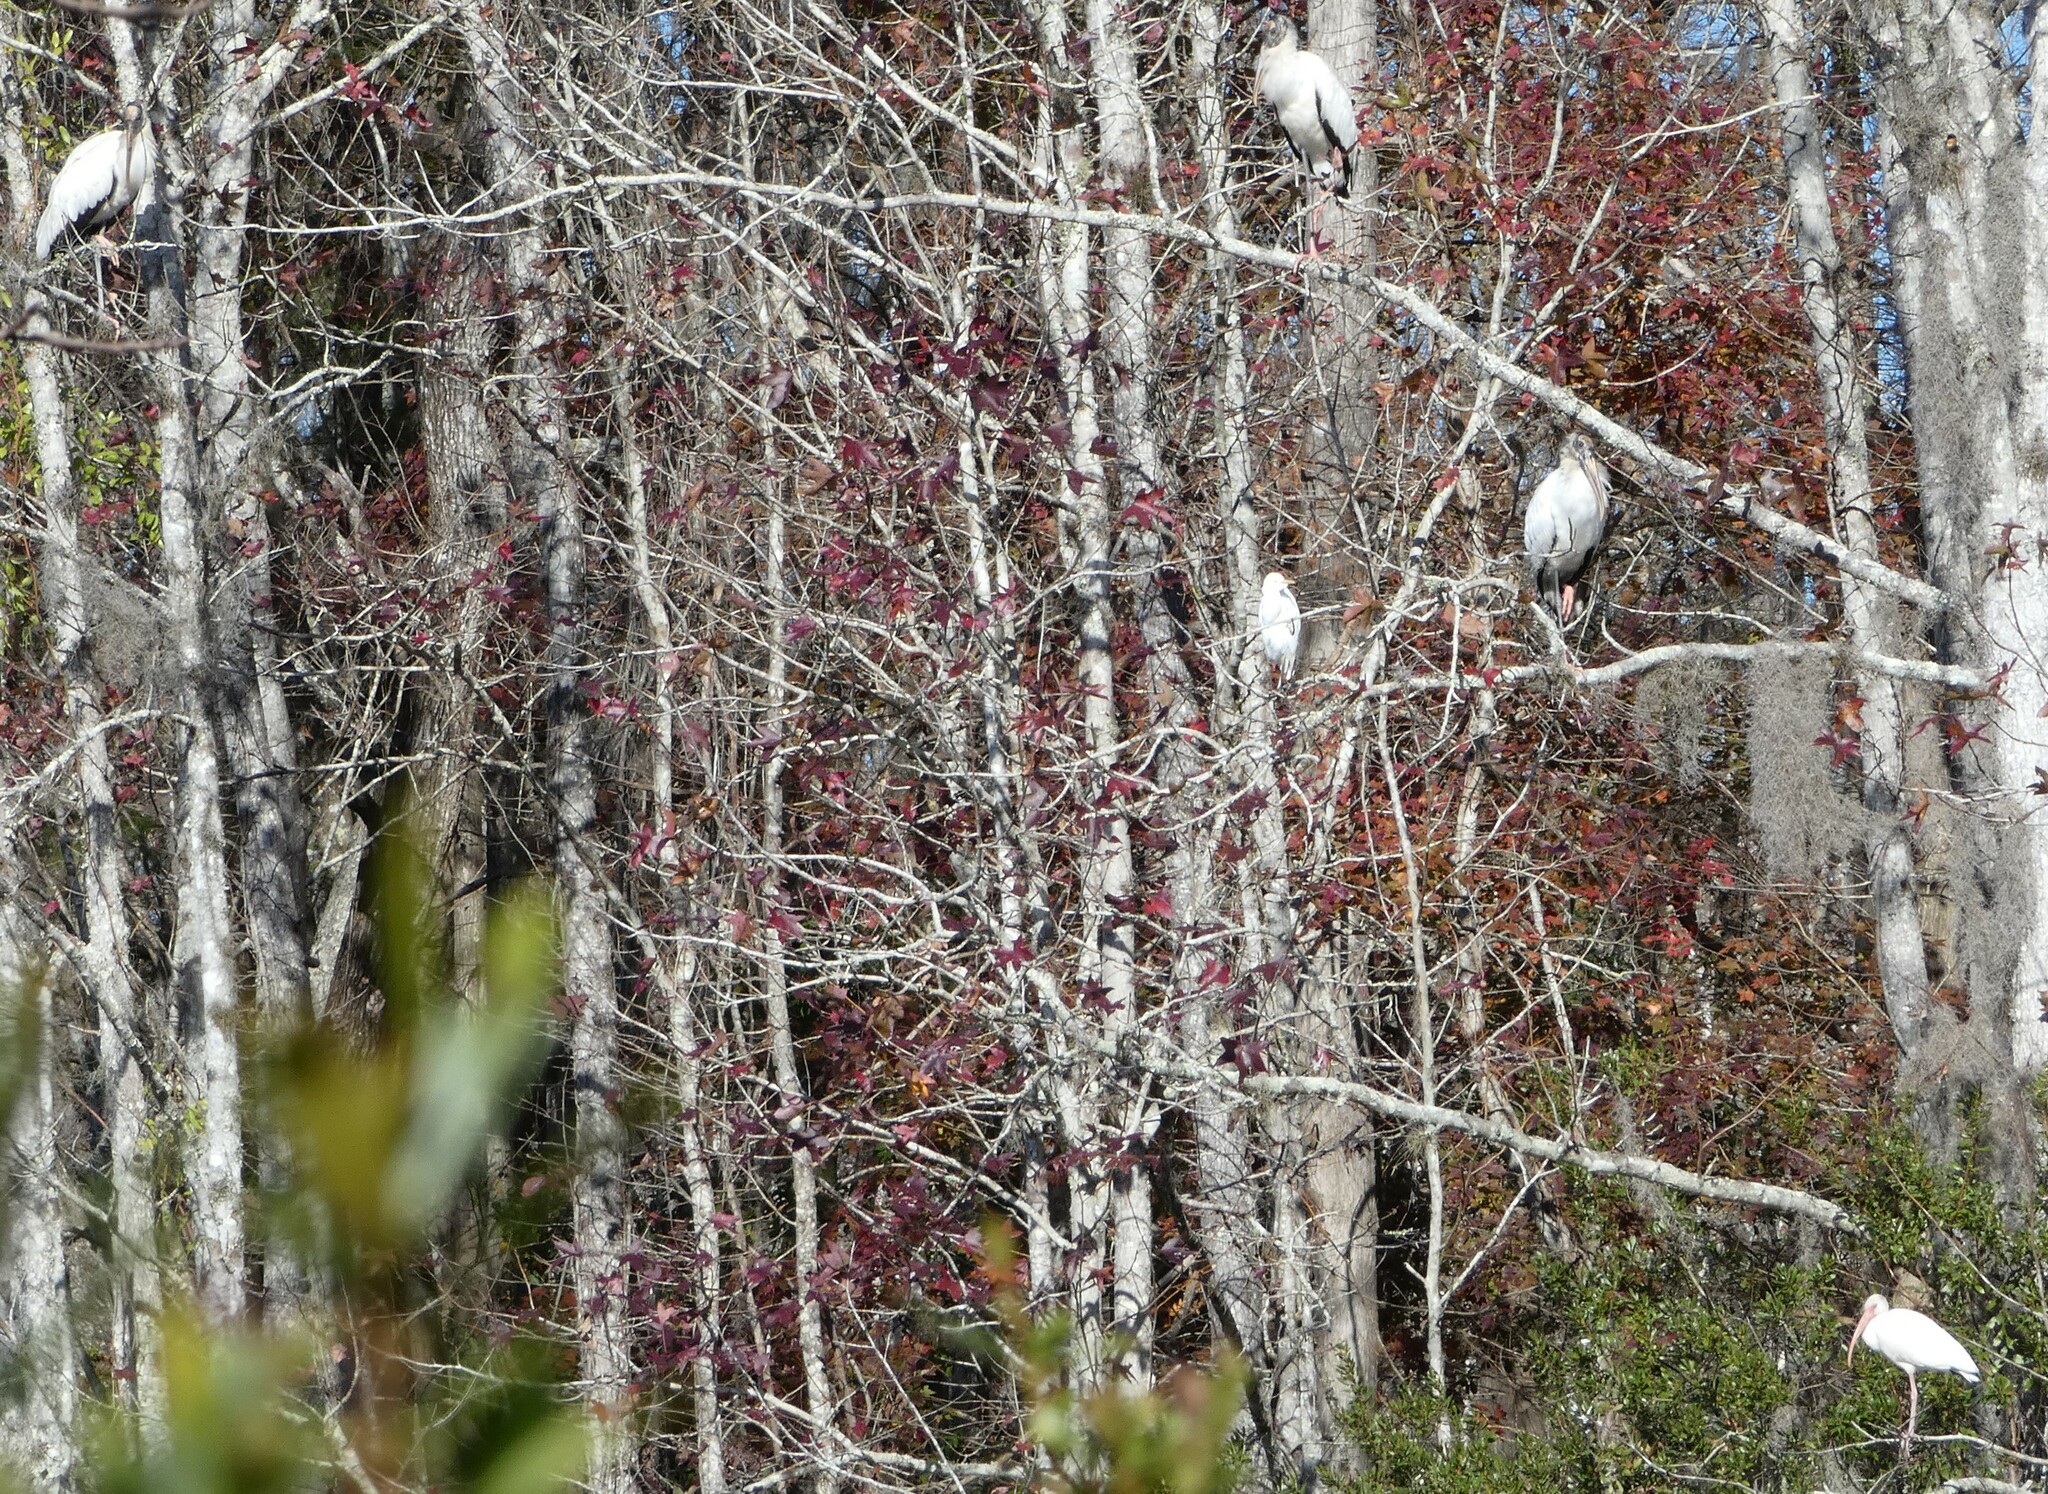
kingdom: Animalia
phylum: Chordata
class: Aves
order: Ciconiiformes
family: Ciconiidae
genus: Mycteria
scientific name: Mycteria americana
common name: Wood stork
